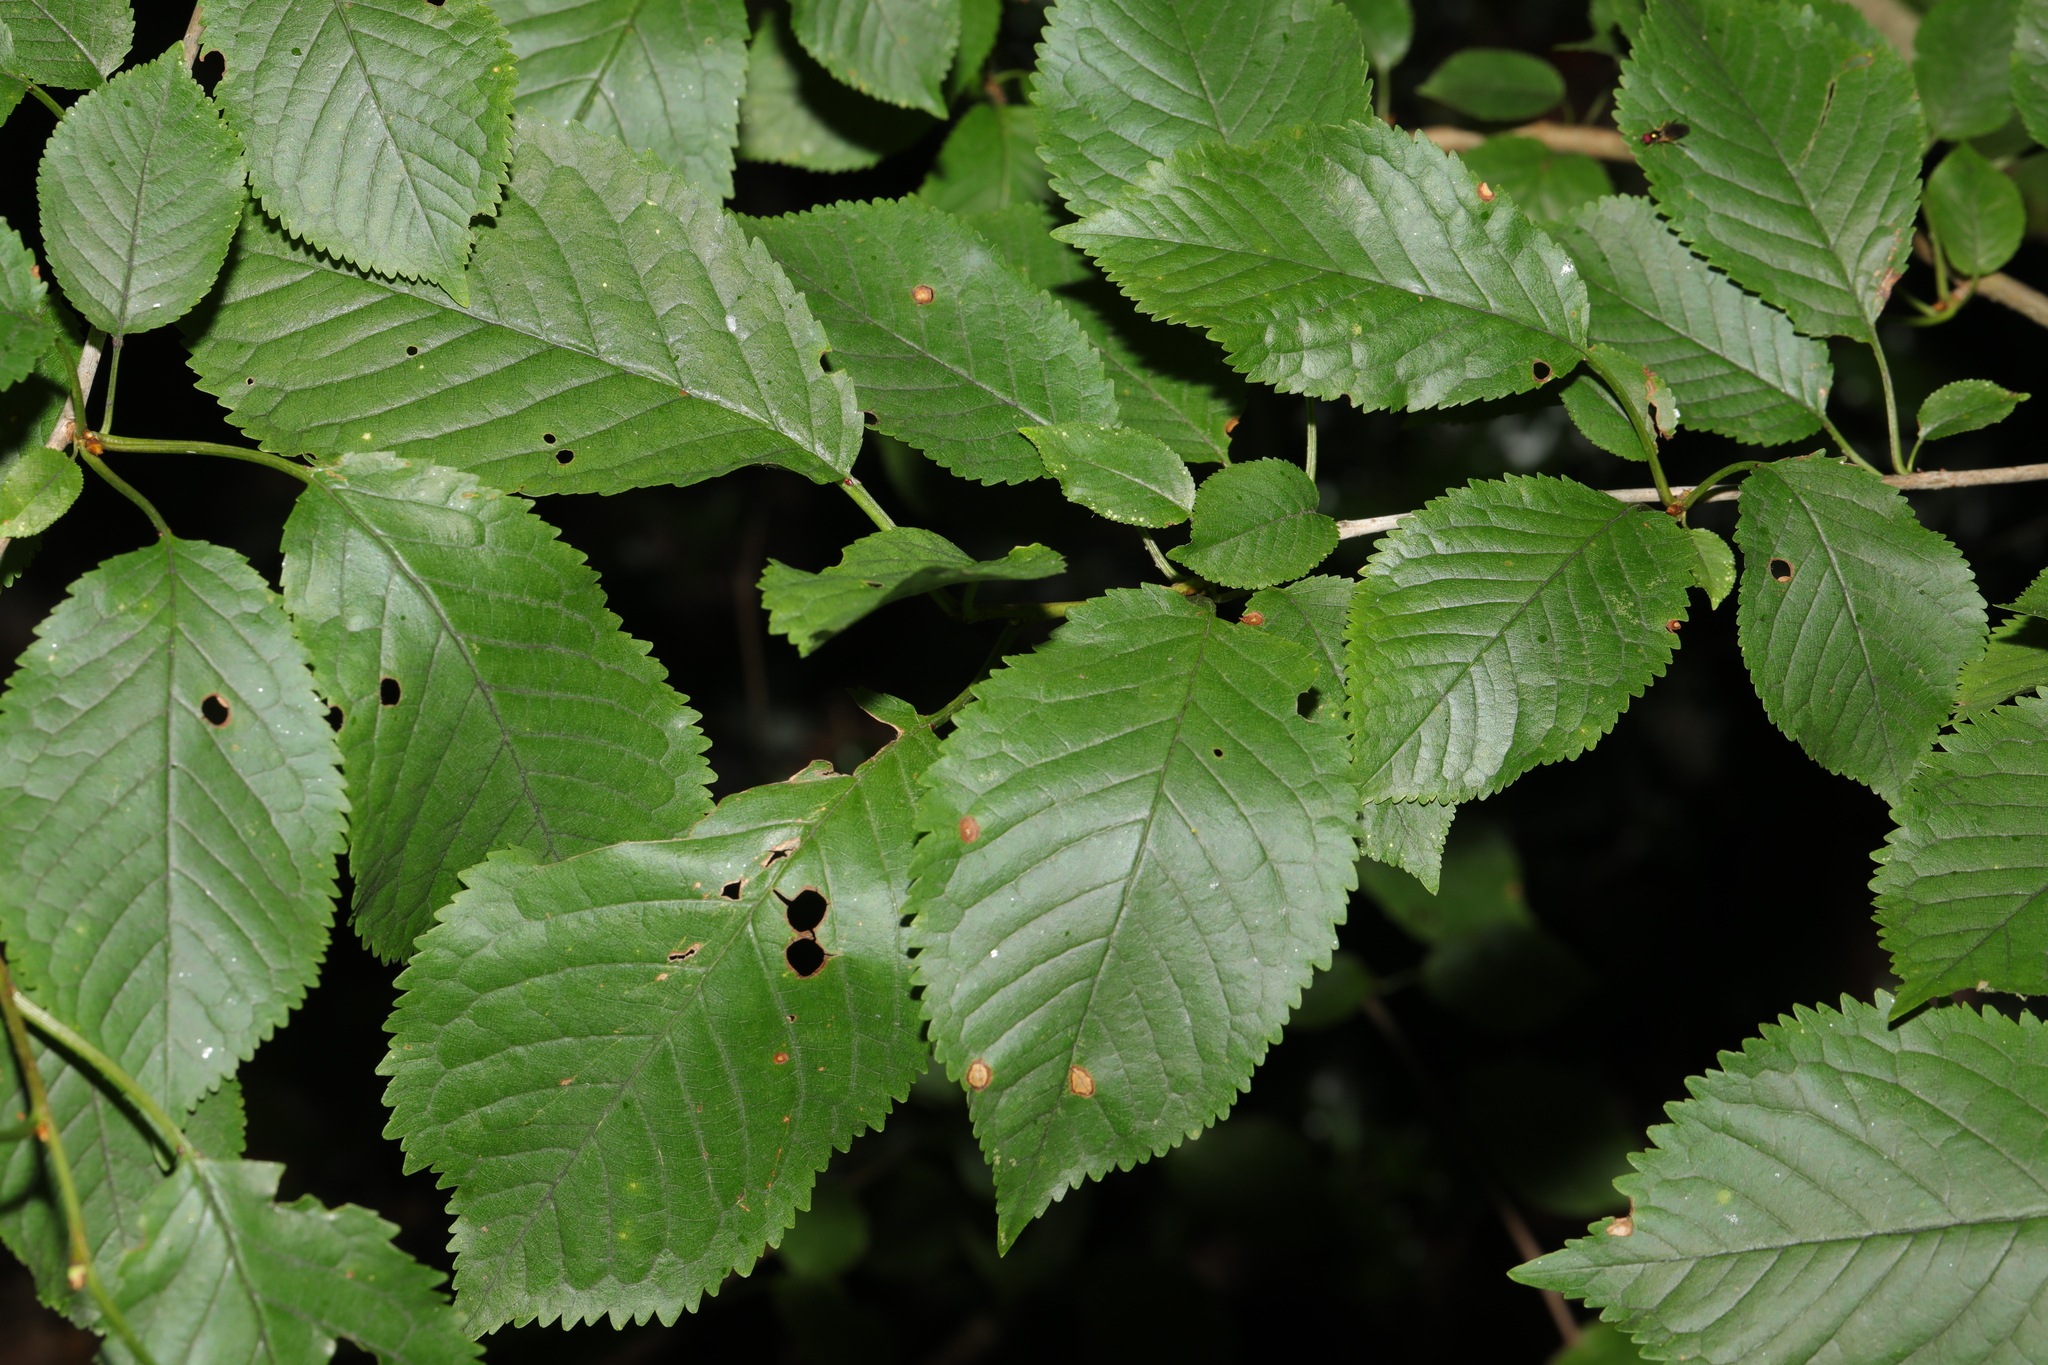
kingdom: Plantae
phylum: Tracheophyta
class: Magnoliopsida
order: Rosales
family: Rosaceae
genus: Prunus
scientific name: Prunus avium
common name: Sweet cherry
